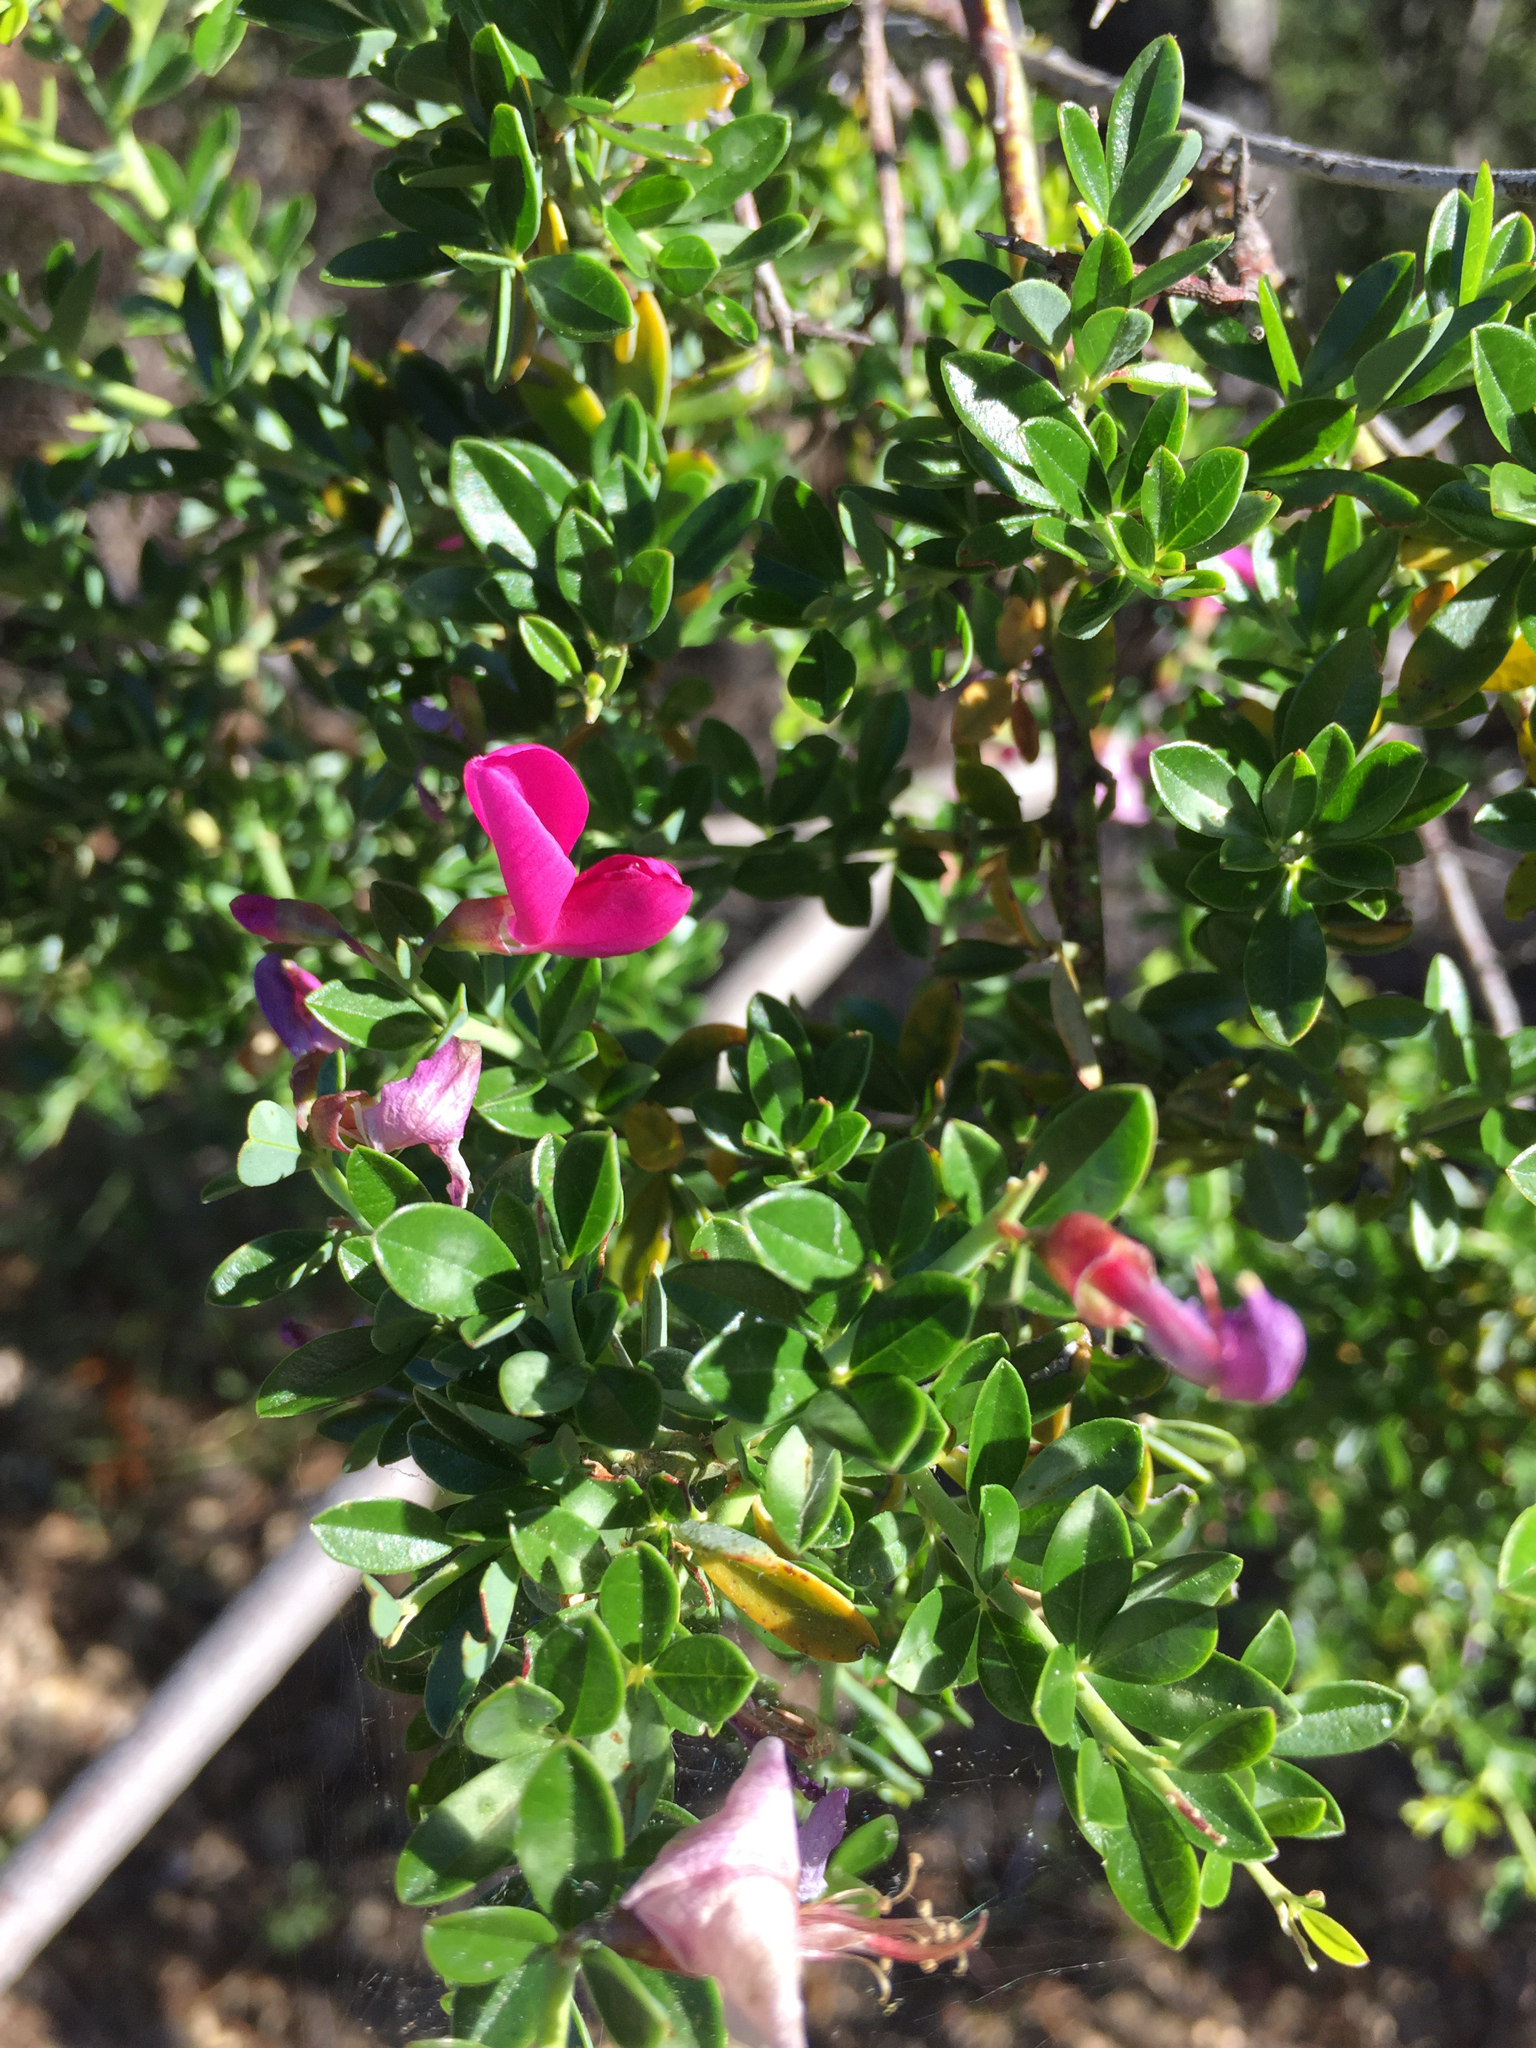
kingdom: Plantae
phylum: Tracheophyta
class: Magnoliopsida
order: Fabales
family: Fabaceae
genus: Pickeringia
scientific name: Pickeringia montana
